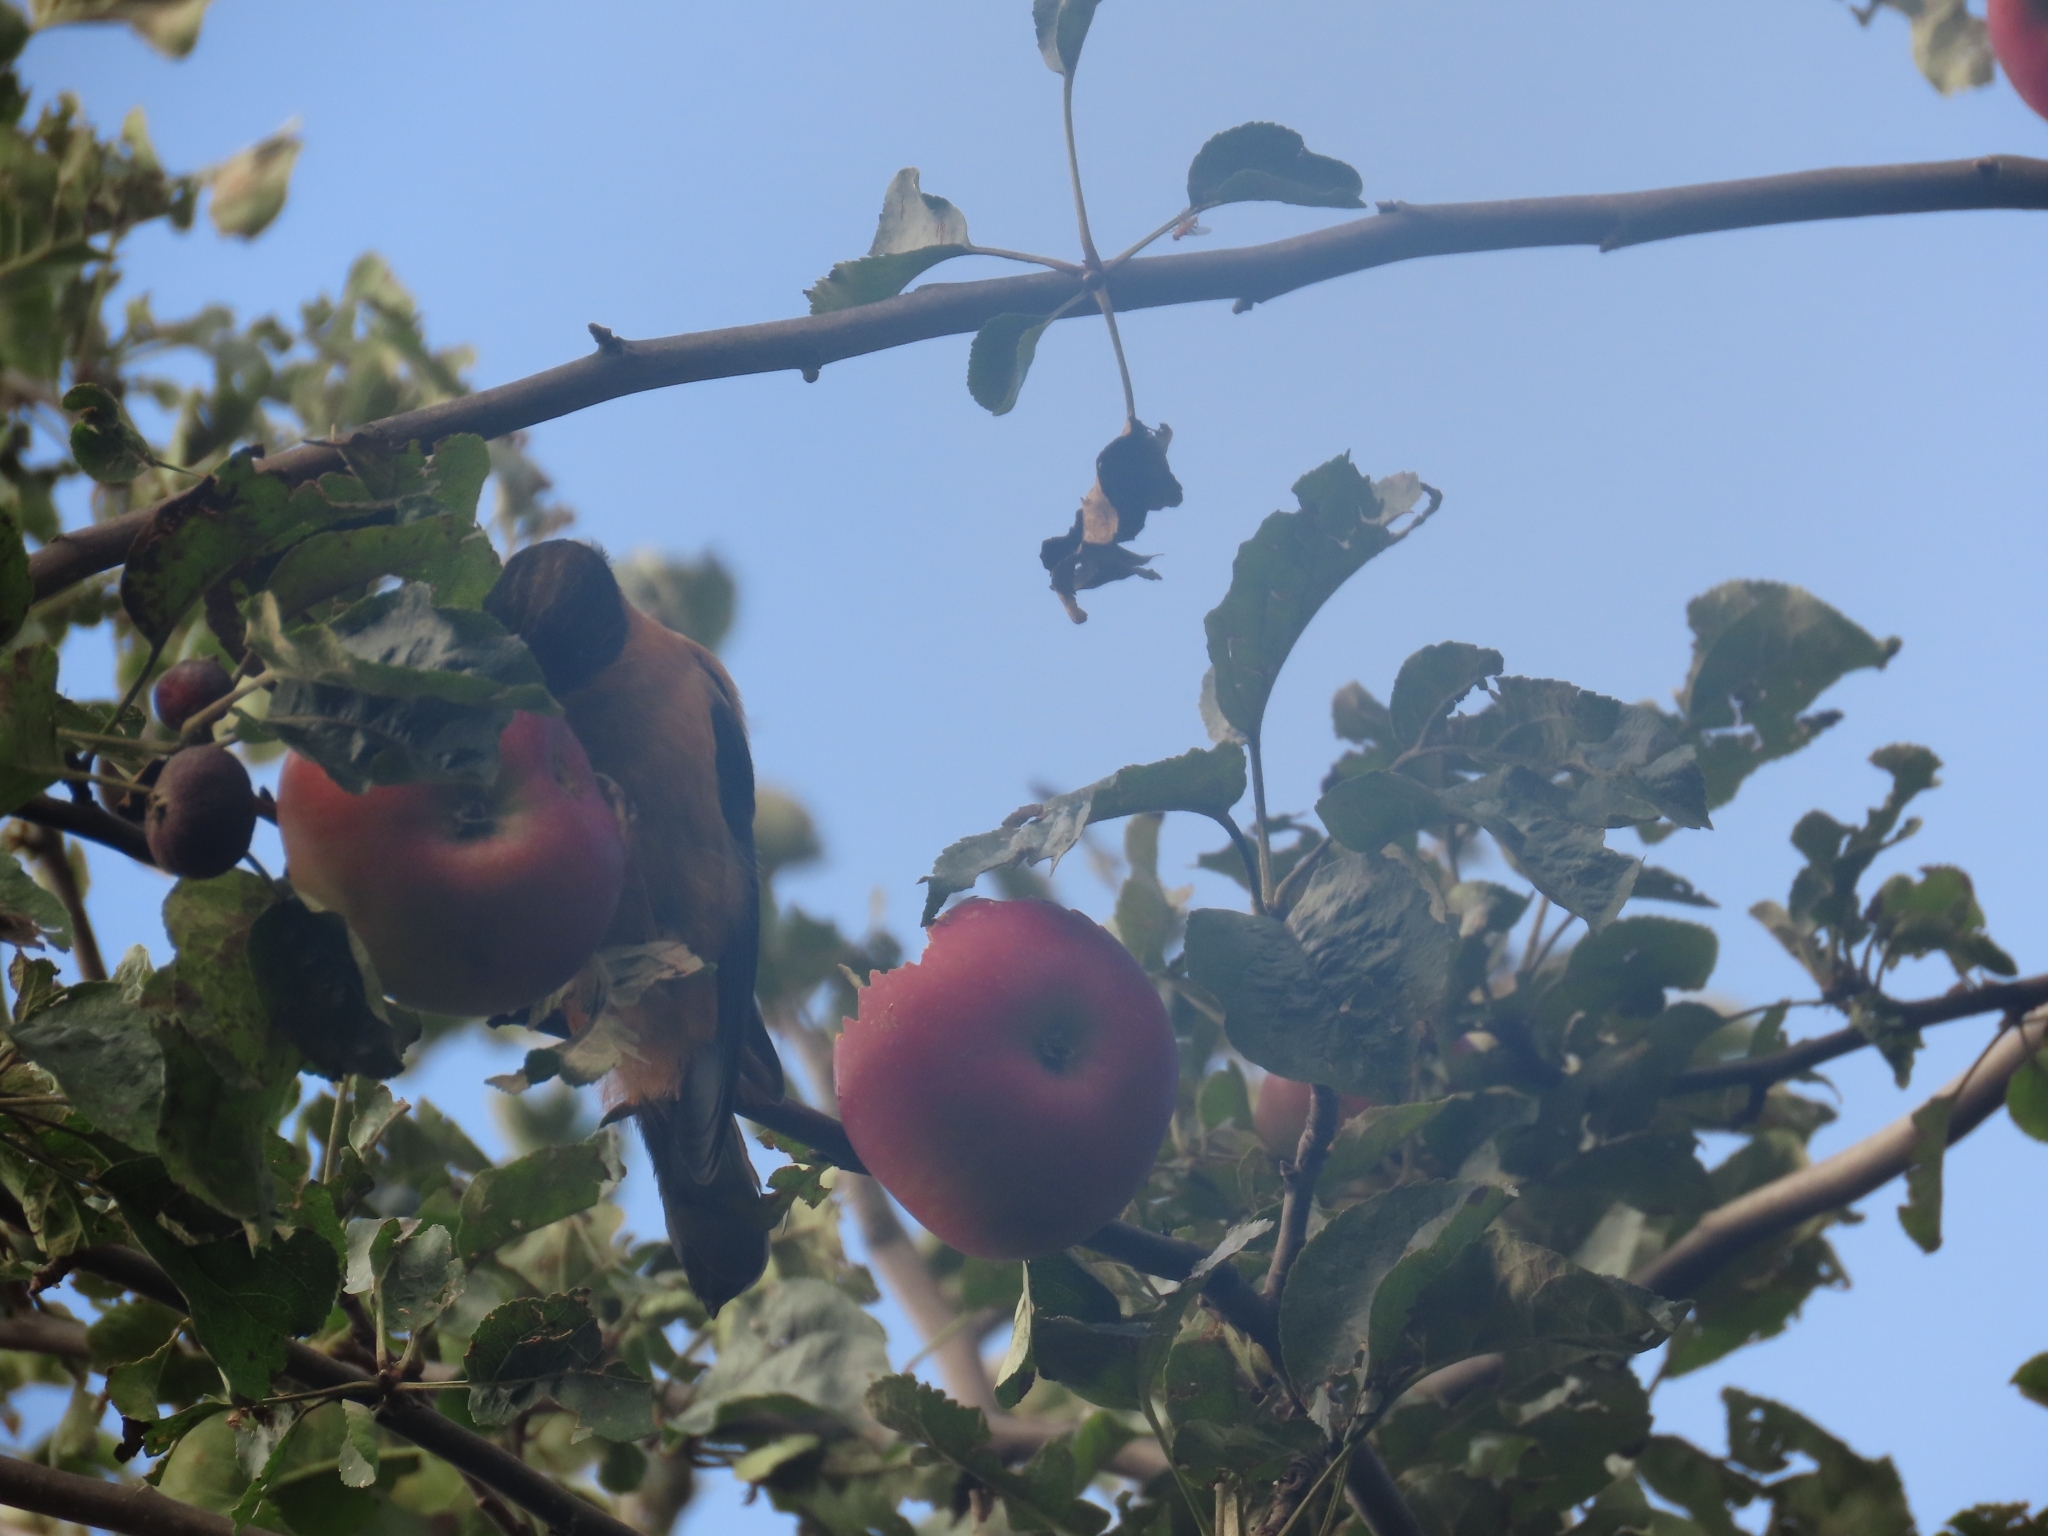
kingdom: Animalia
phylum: Chordata
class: Aves
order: Passeriformes
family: Leiothrichidae
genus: Heterophasia
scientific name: Heterophasia capistrata
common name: Rufous sibia
